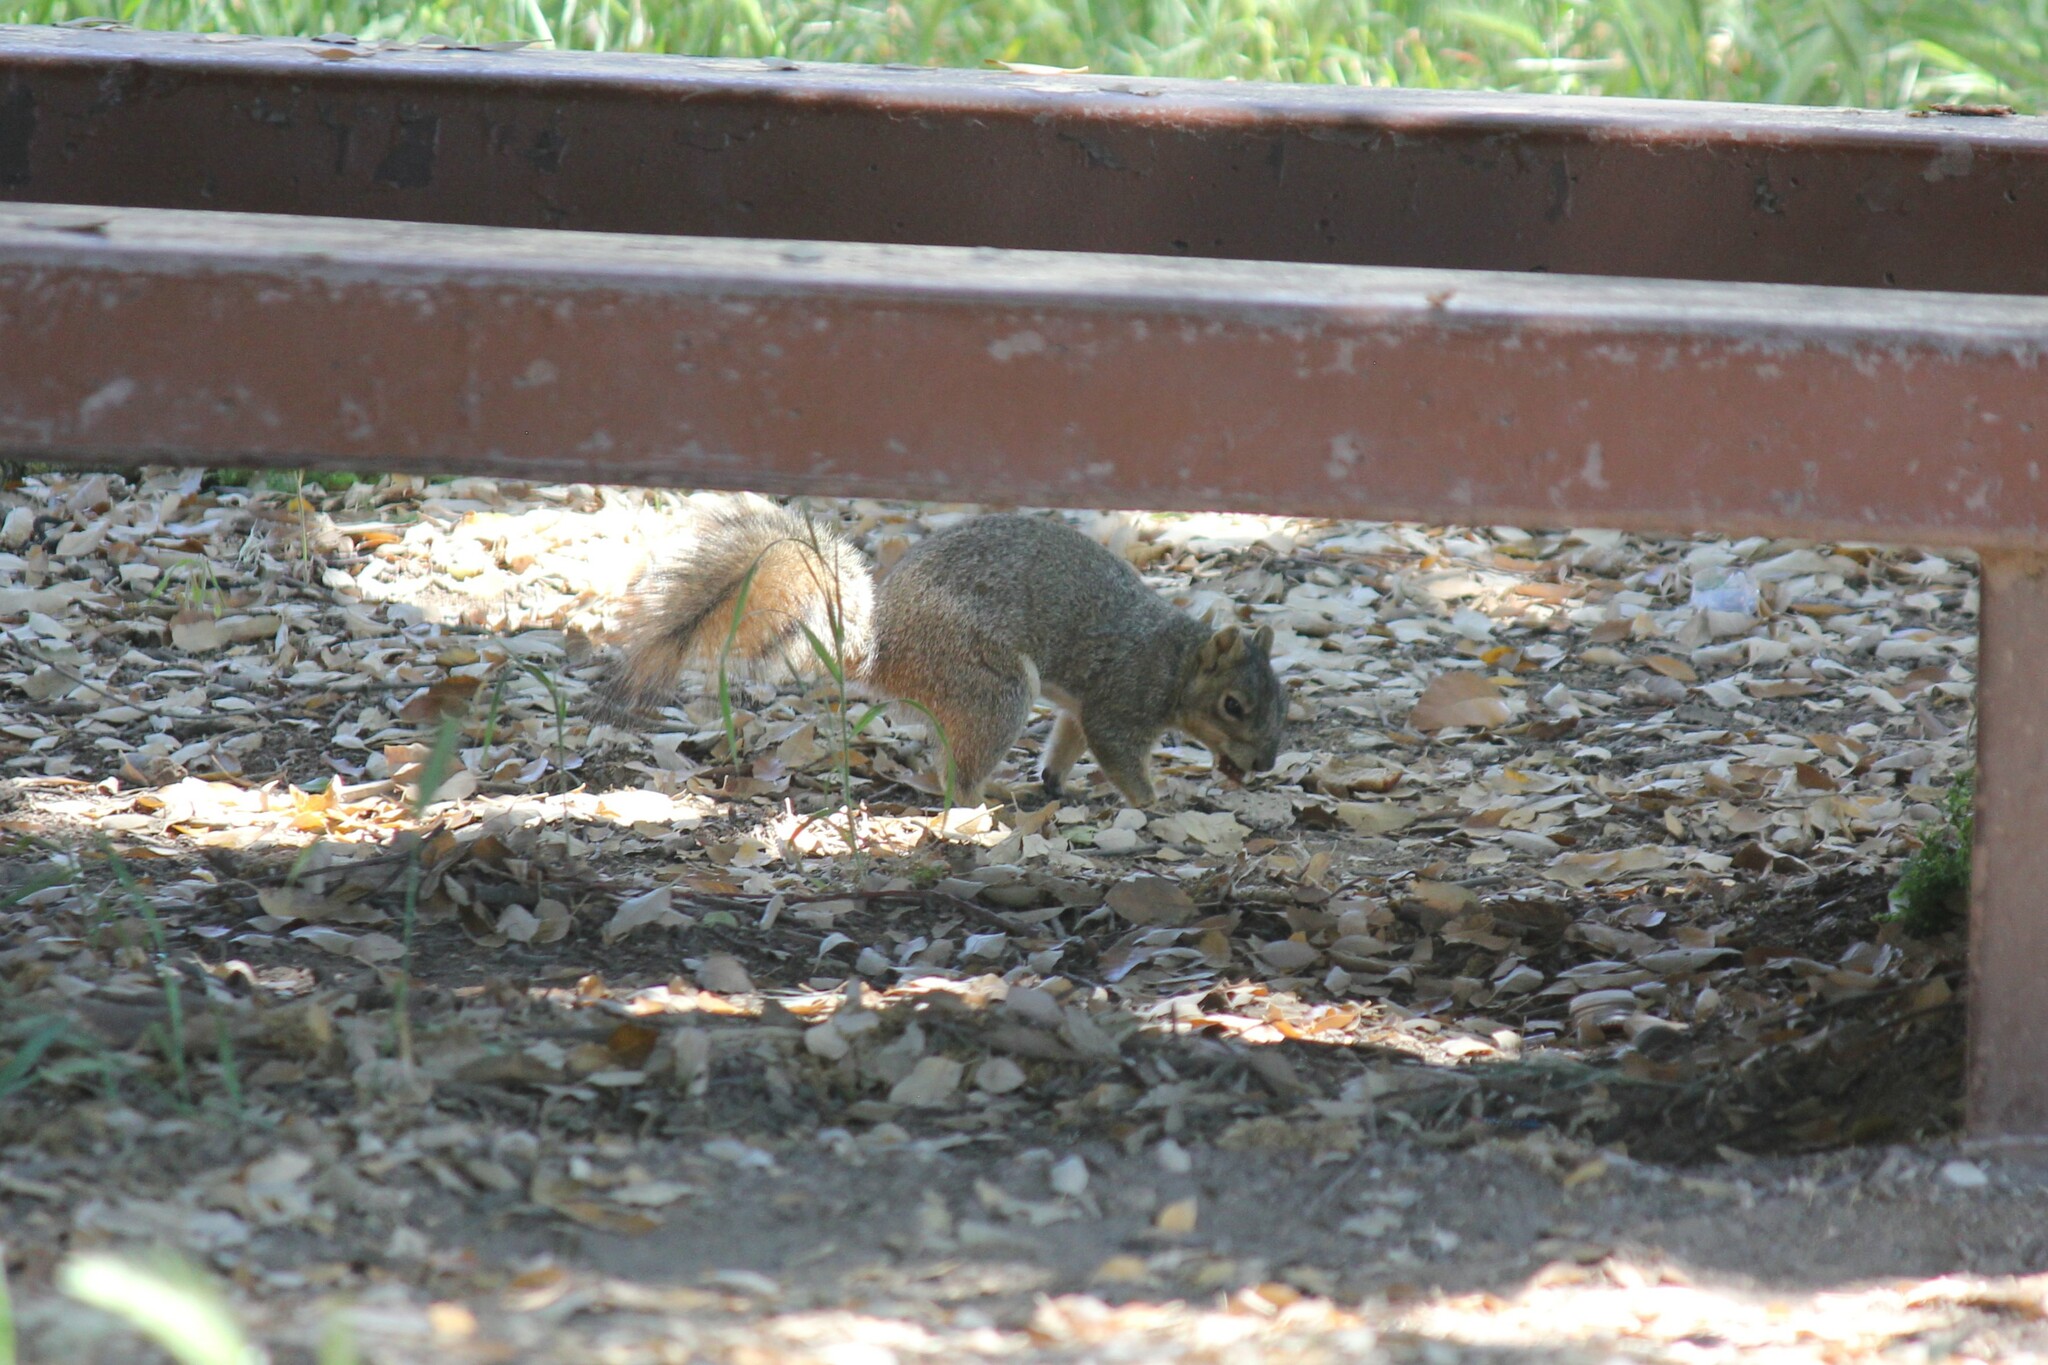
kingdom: Animalia
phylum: Chordata
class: Mammalia
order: Rodentia
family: Sciuridae
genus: Sciurus
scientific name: Sciurus niger
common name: Fox squirrel
